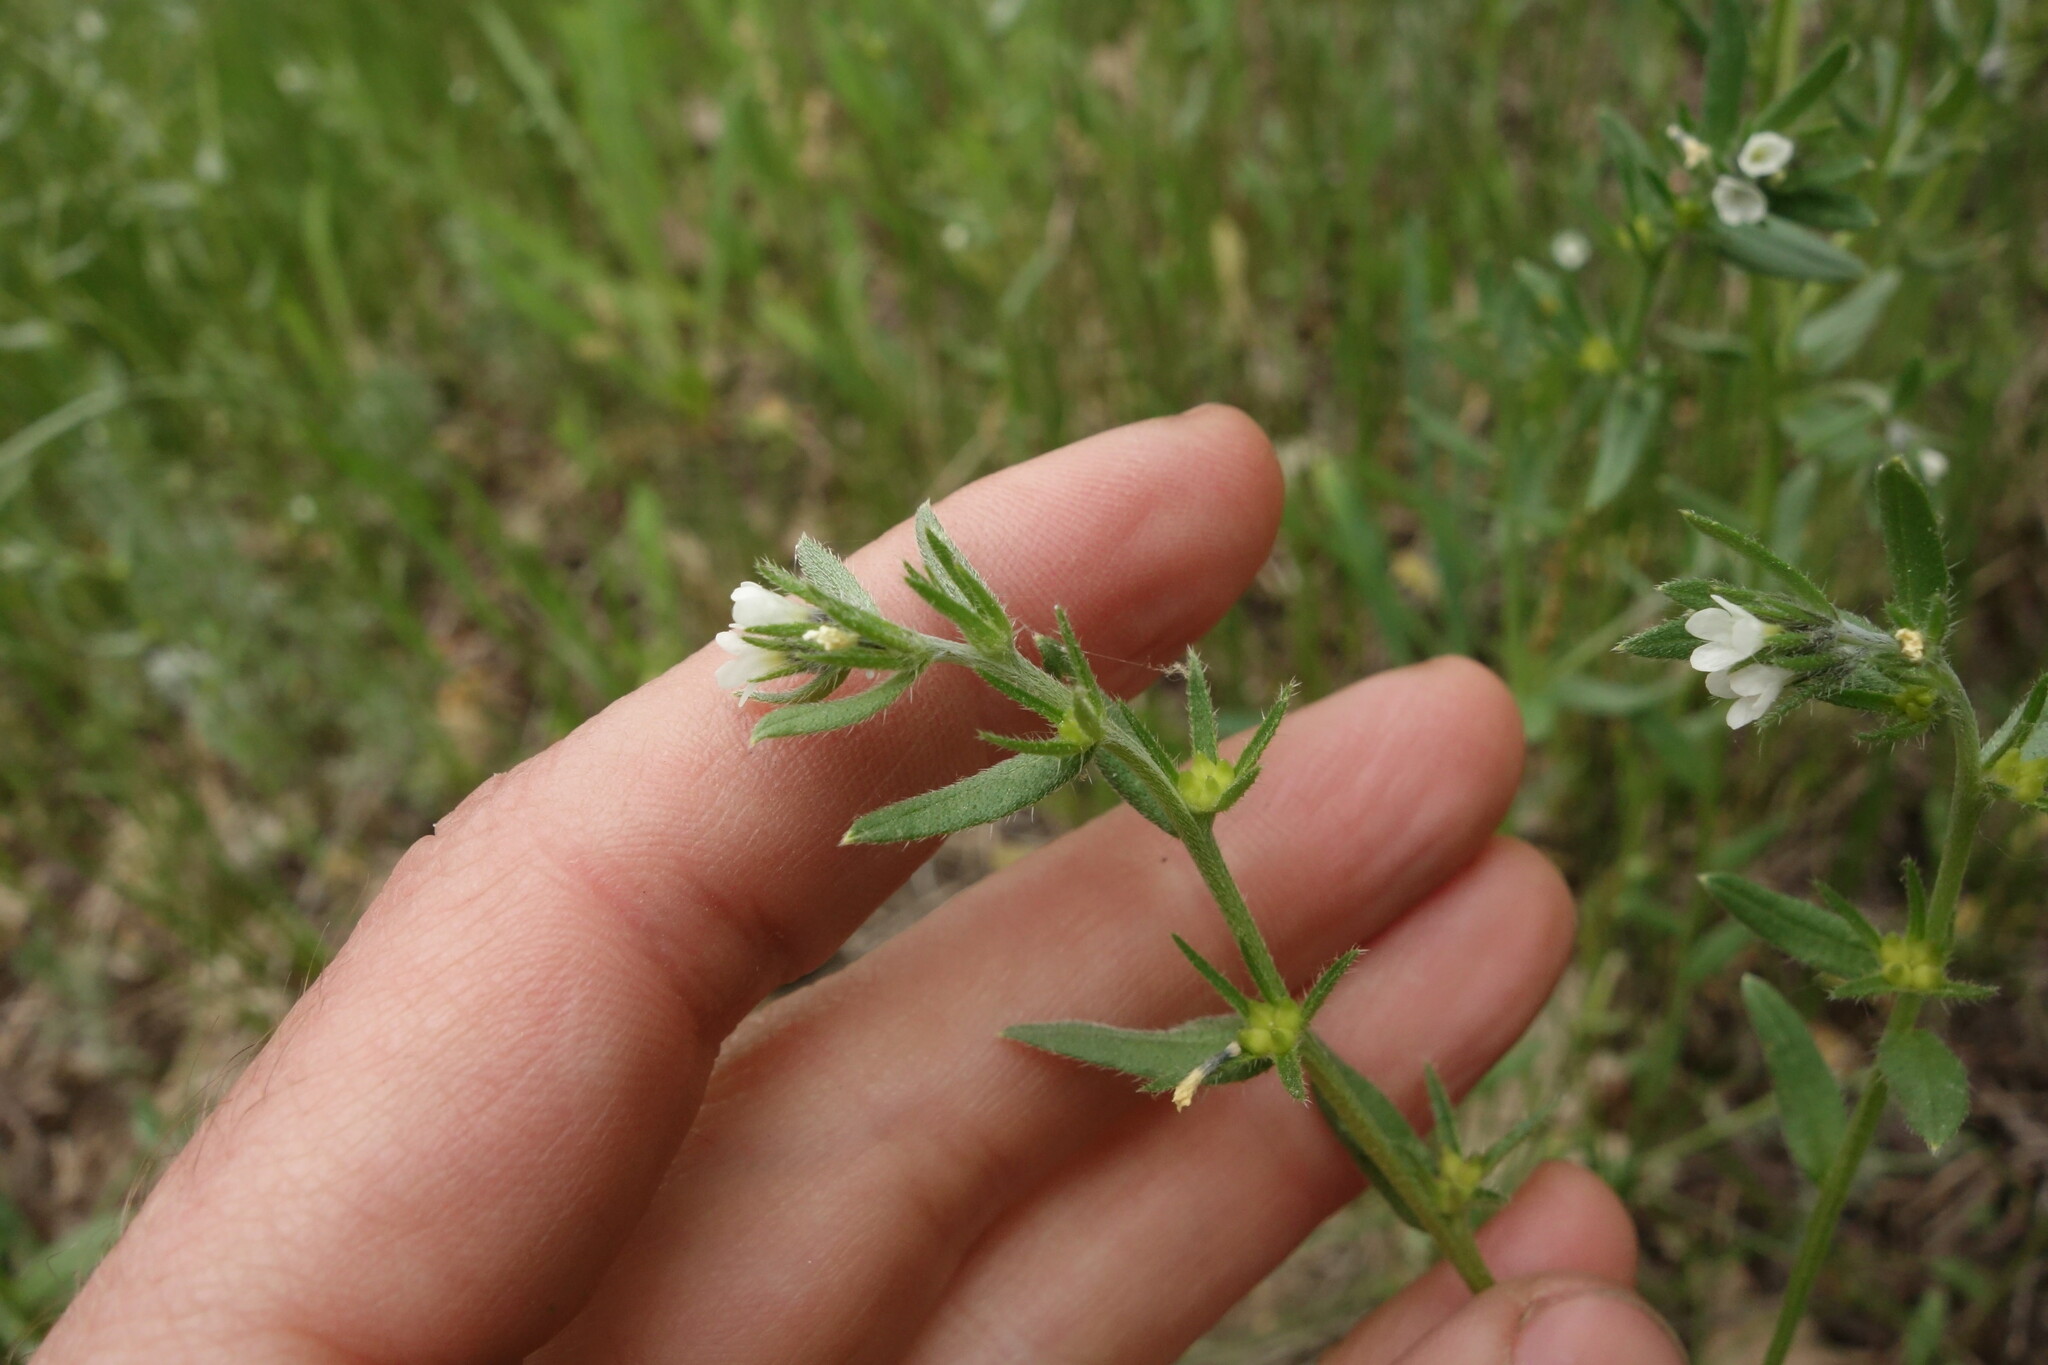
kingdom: Plantae
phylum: Tracheophyta
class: Magnoliopsida
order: Boraginales
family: Boraginaceae
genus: Buglossoides
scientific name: Buglossoides arvensis
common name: Corn gromwell
